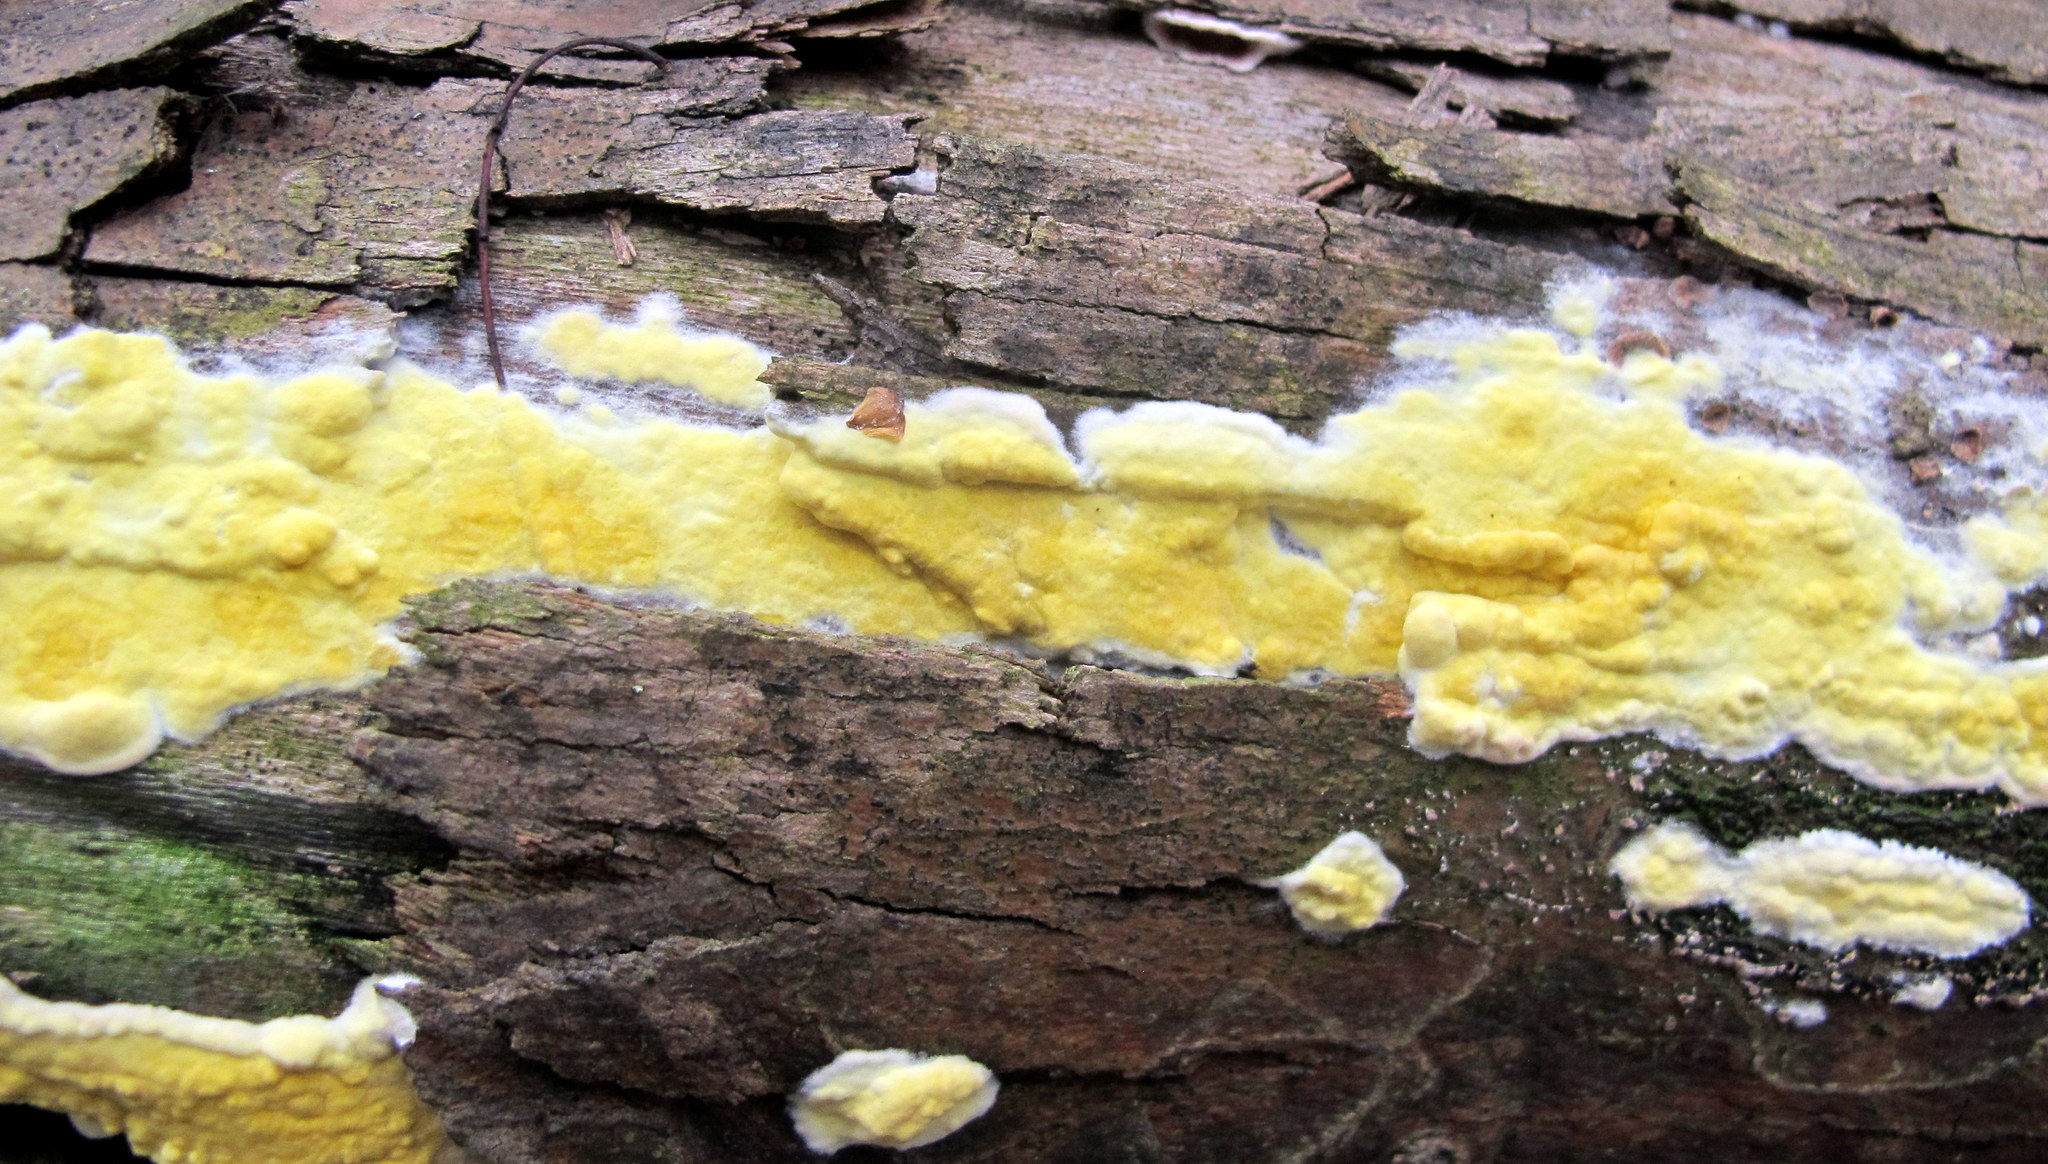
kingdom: Fungi
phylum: Ascomycota
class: Sordariomycetes
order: Hypocreales
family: Hypocreaceae
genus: Trichoderma
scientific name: Trichoderma sulphureum
